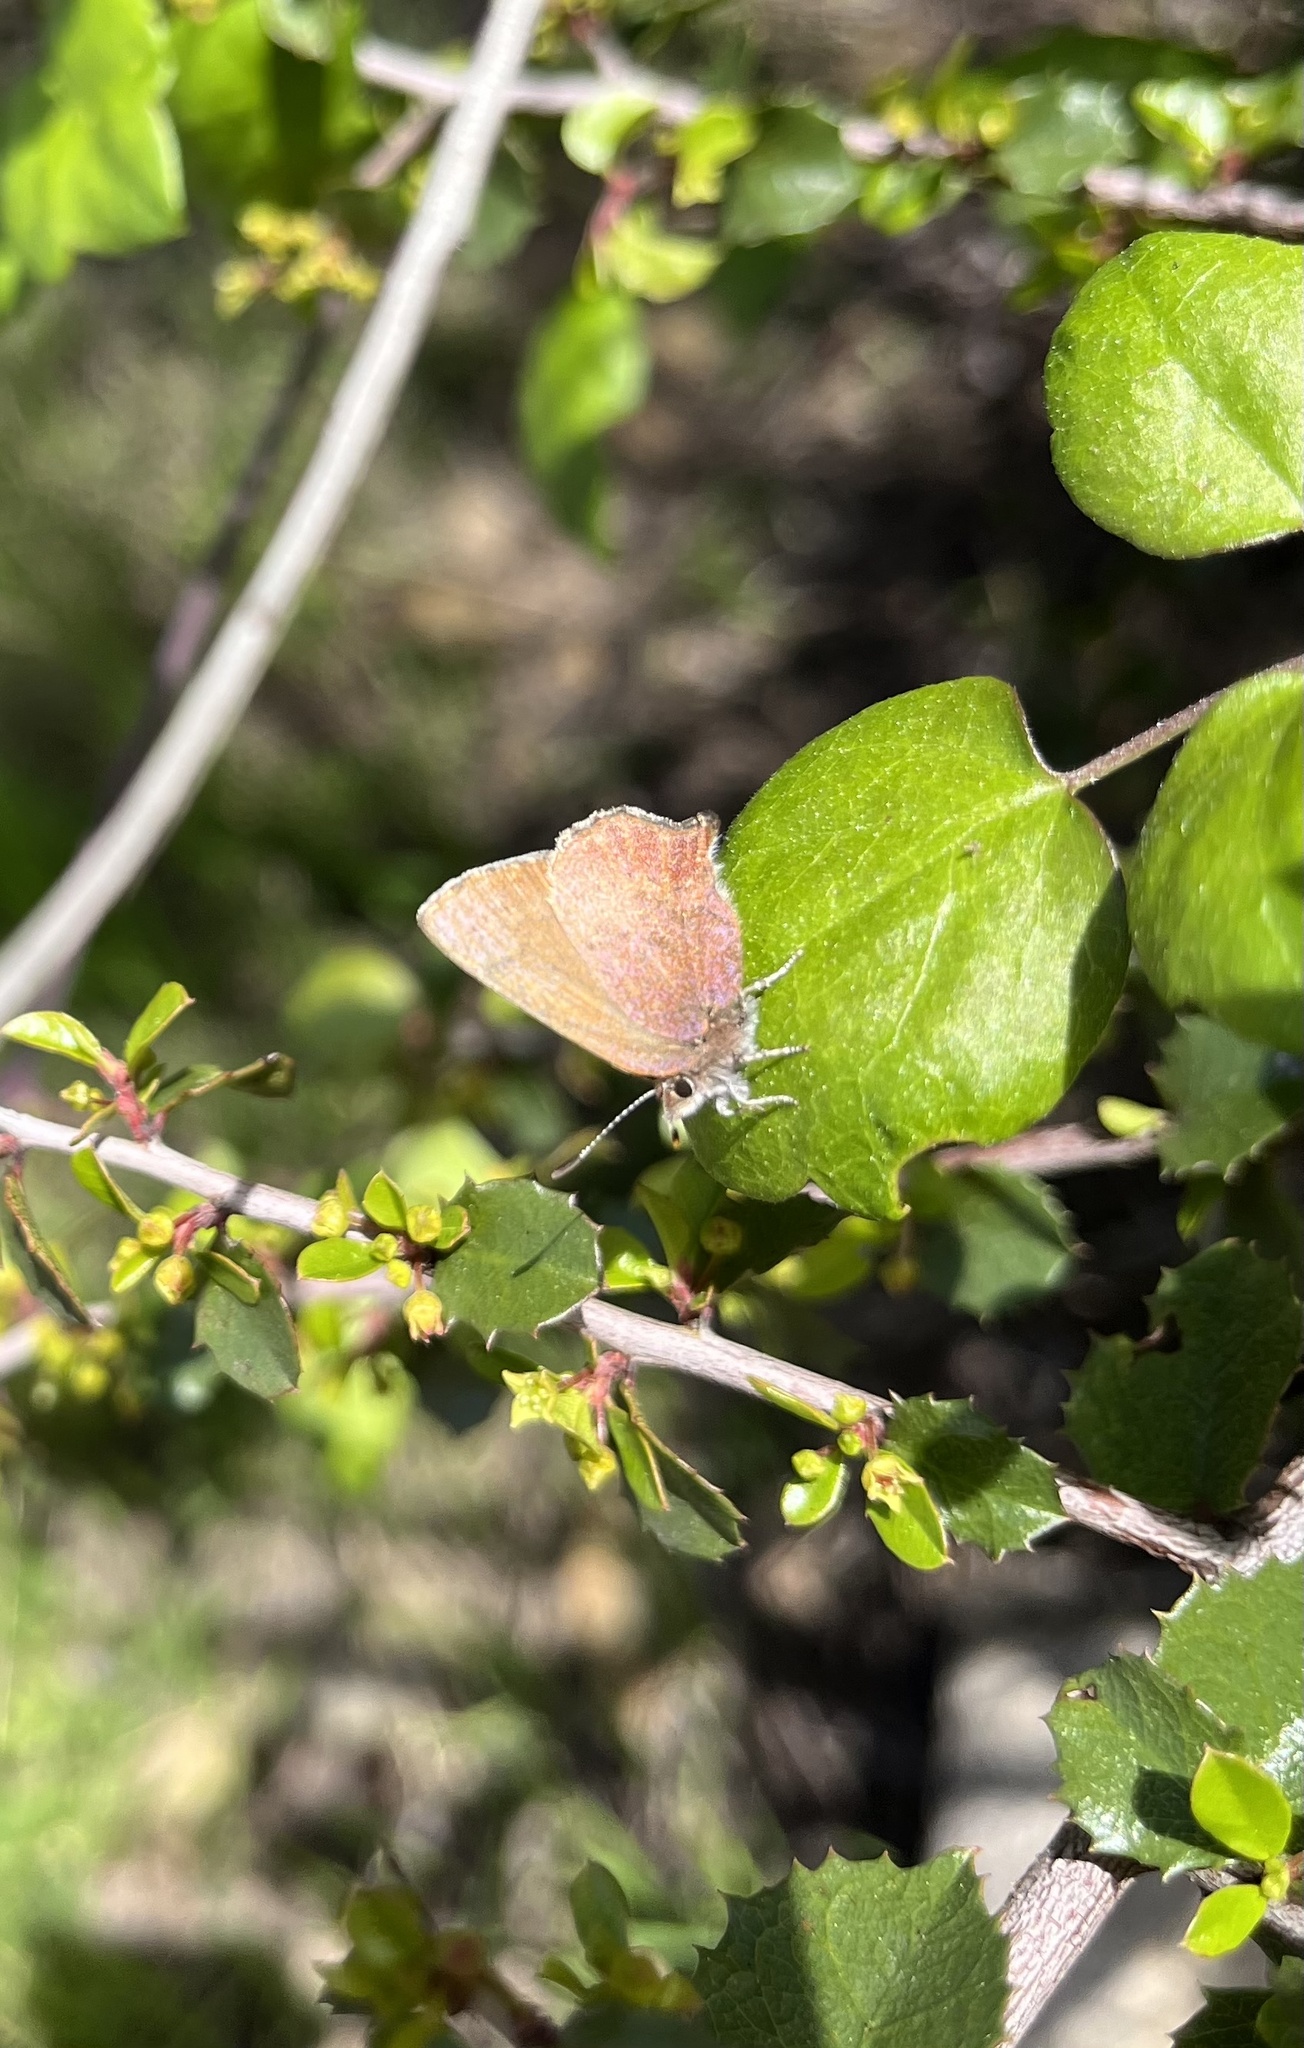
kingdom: Animalia
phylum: Arthropoda
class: Insecta
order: Lepidoptera
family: Lycaenidae
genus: Incisalia
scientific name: Incisalia irioides
